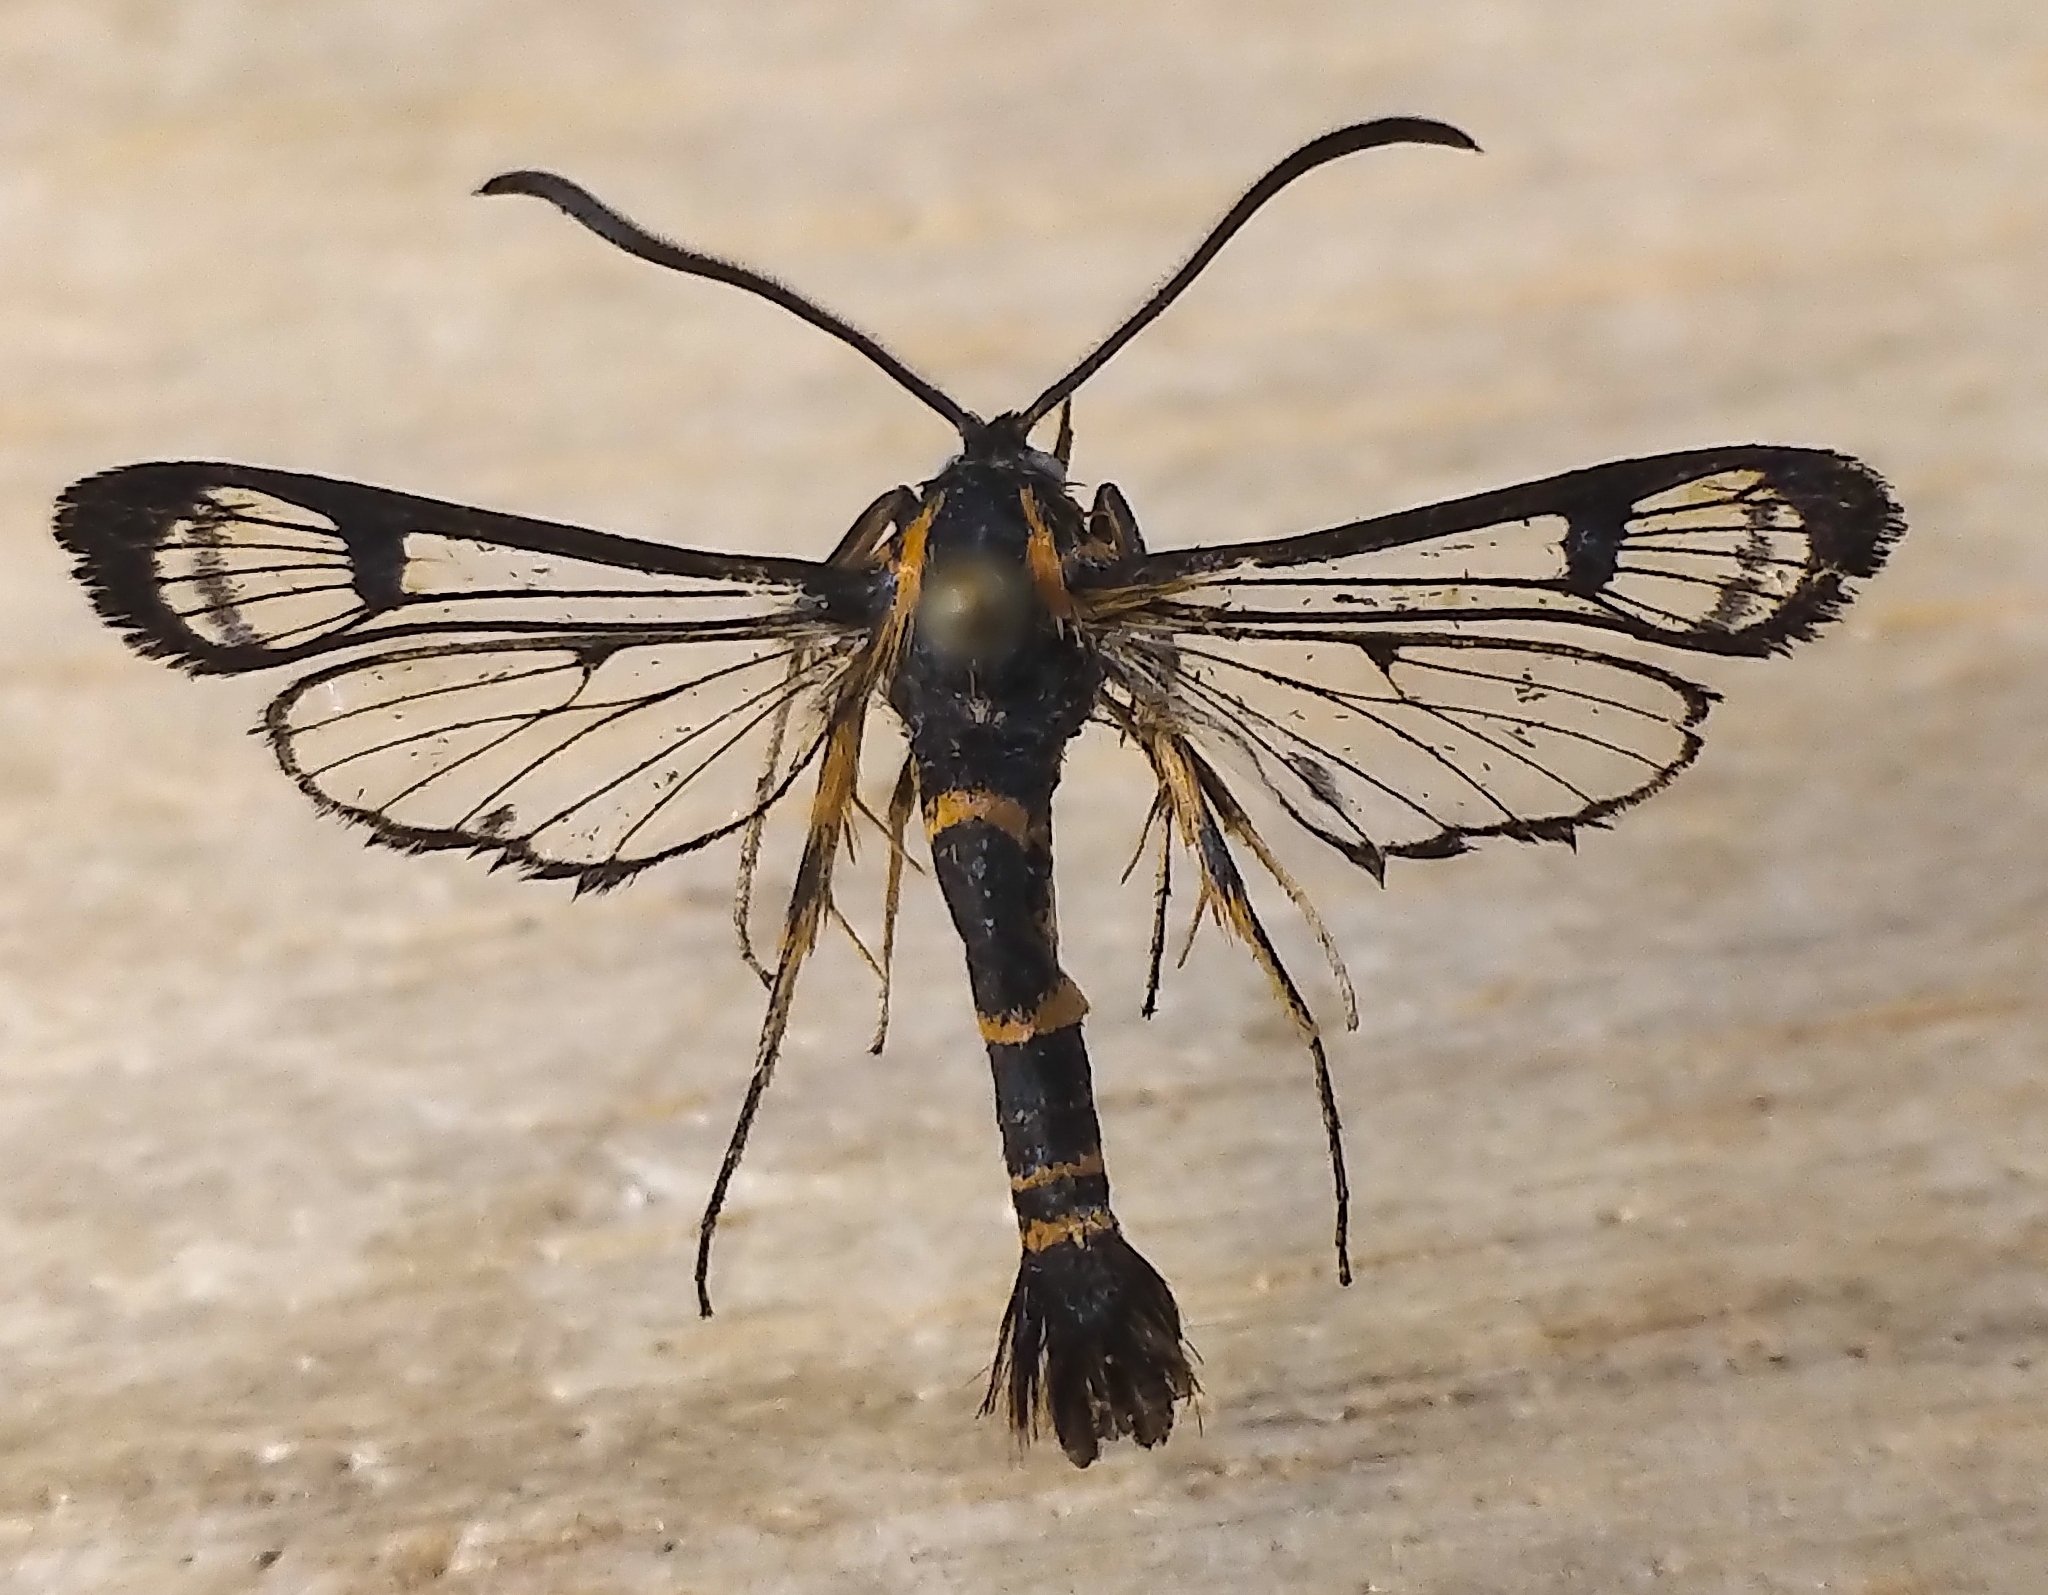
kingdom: Animalia
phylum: Arthropoda
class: Insecta
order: Lepidoptera
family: Sesiidae
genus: Synanthedon
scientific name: Synanthedon novaroensis
